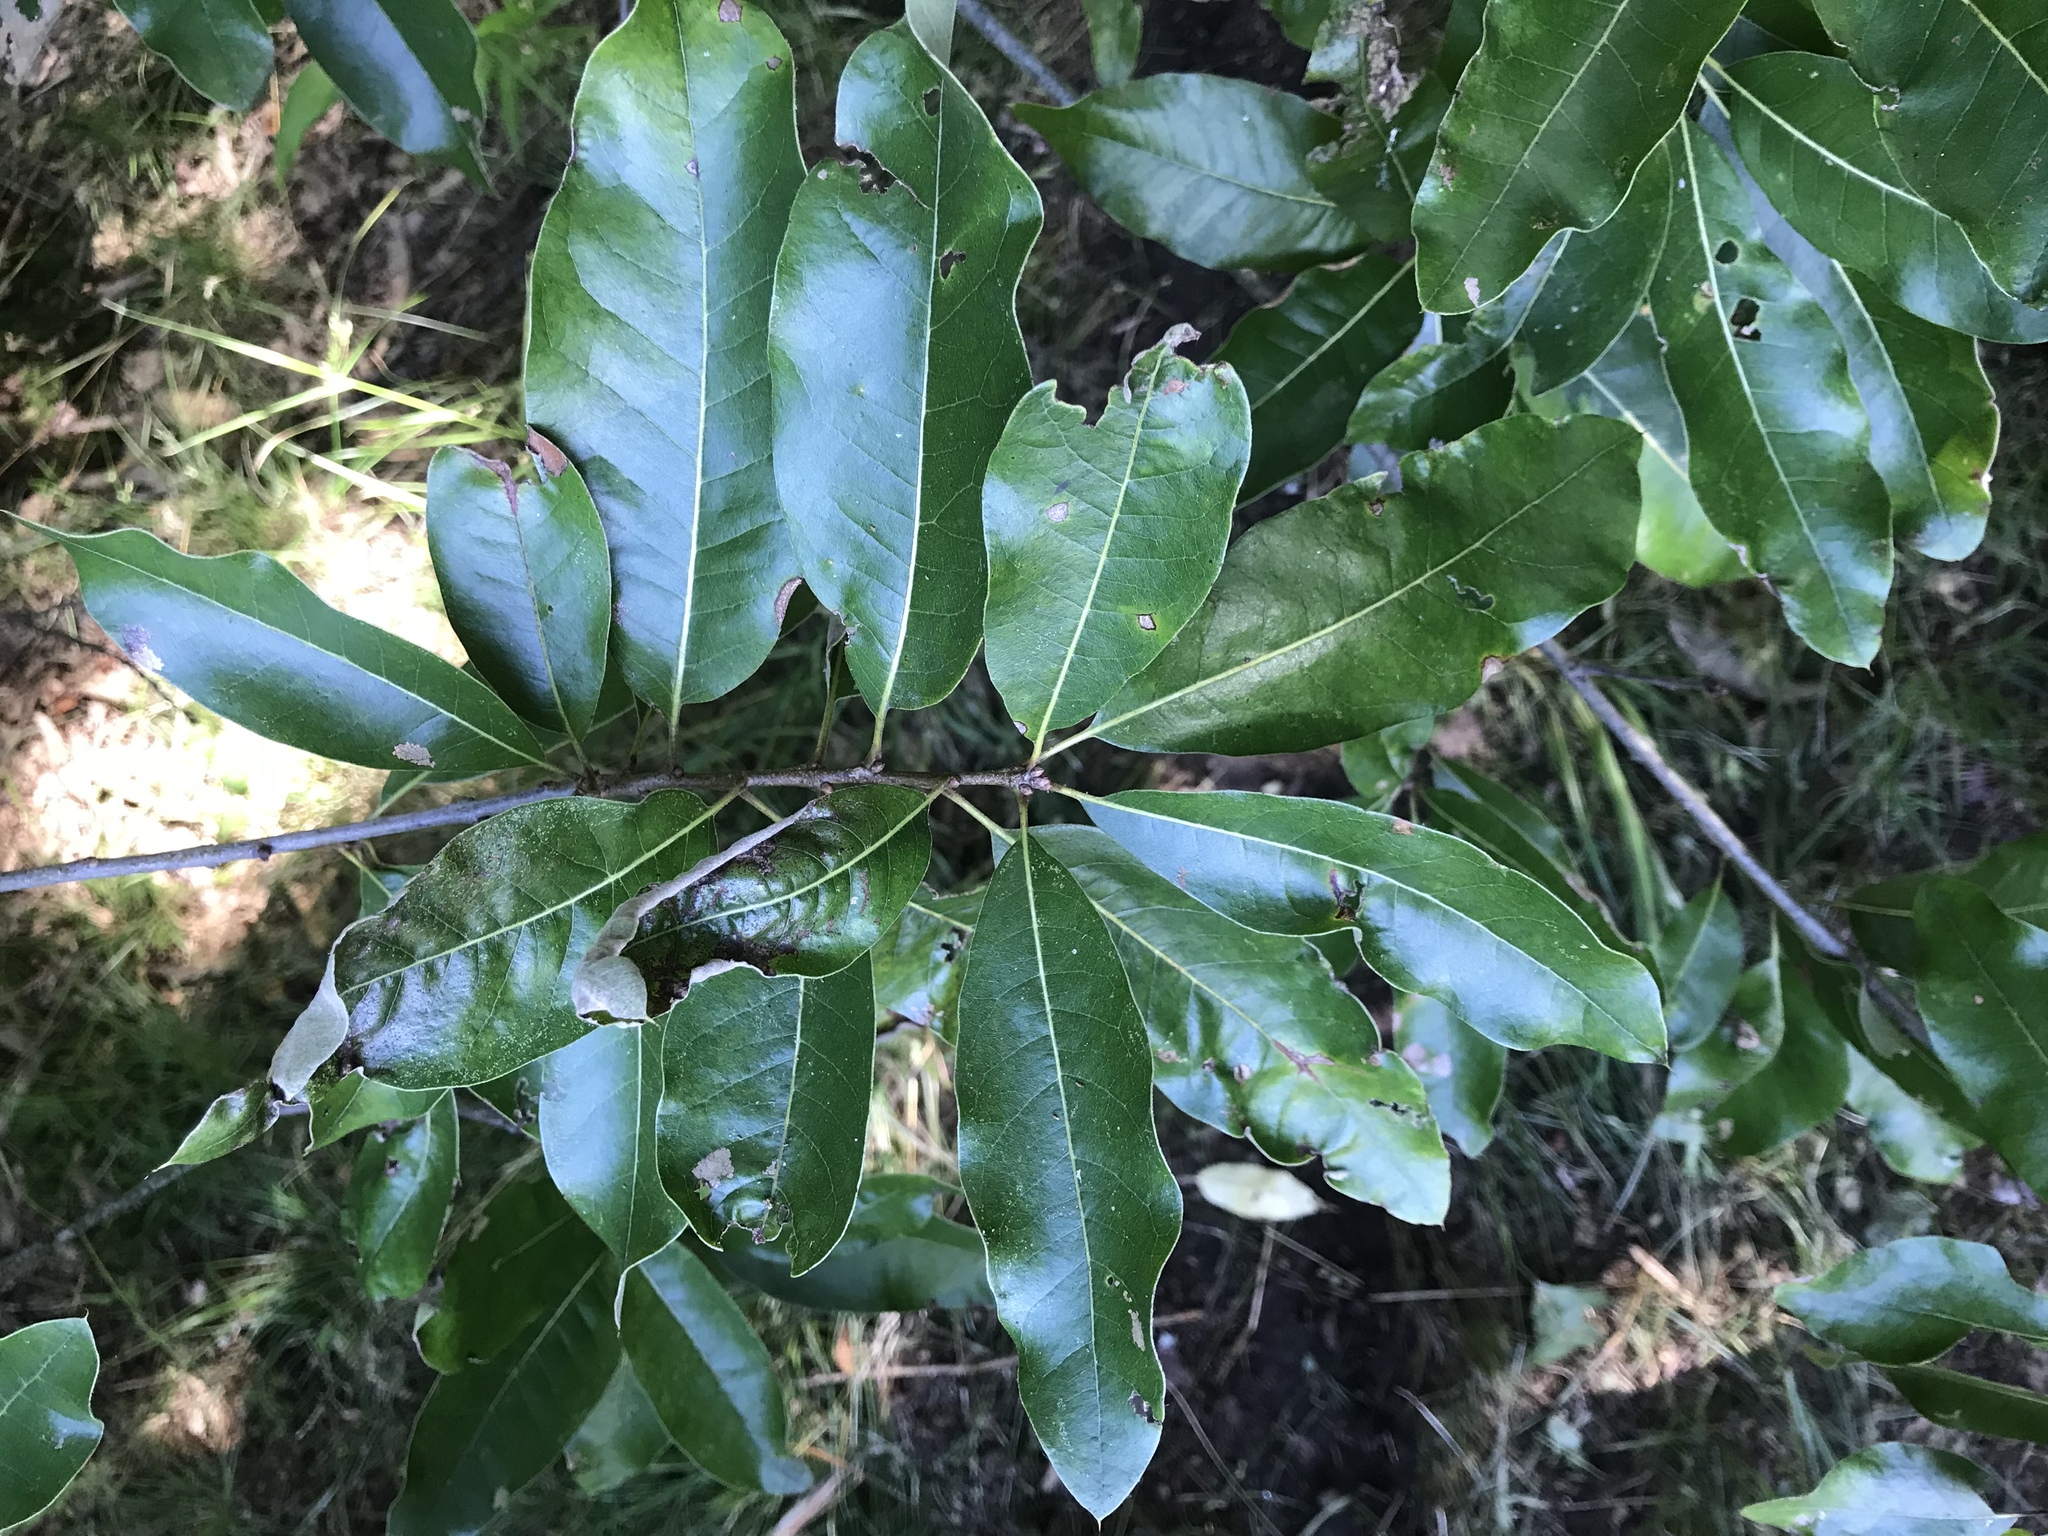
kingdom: Plantae
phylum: Tracheophyta
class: Magnoliopsida
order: Fagales
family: Fagaceae
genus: Quercus
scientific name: Quercus imbricaria
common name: Shingle oak
